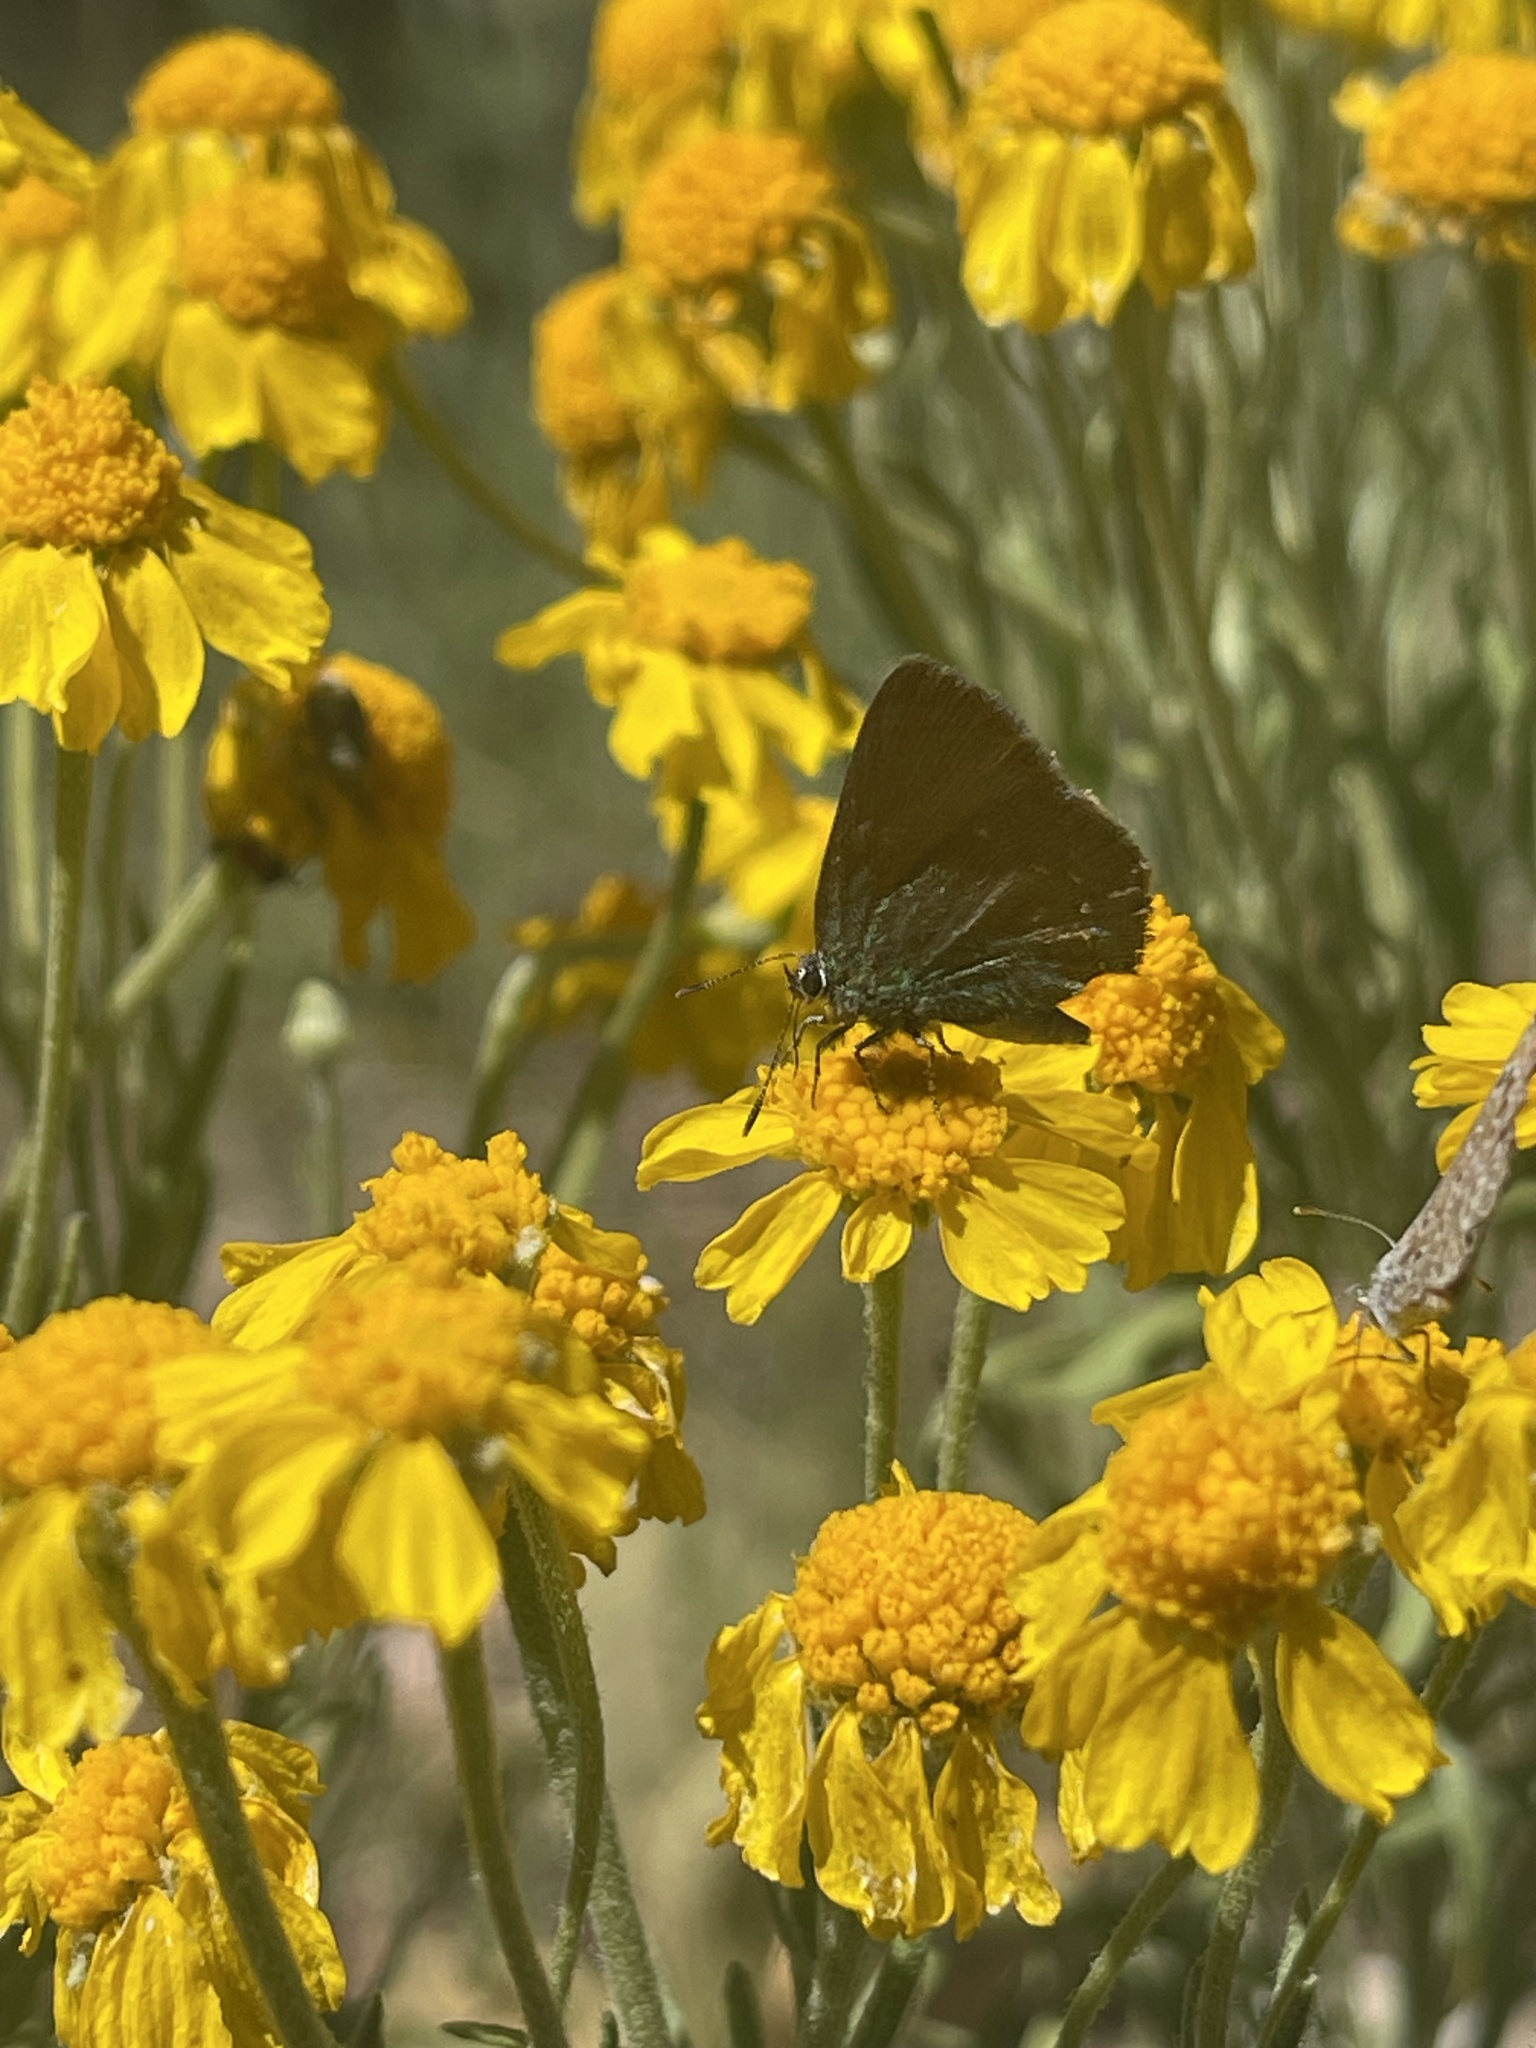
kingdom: Animalia
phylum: Arthropoda
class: Insecta
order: Lepidoptera
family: Lycaenidae
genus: Callophrys
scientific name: Callophrys apama
